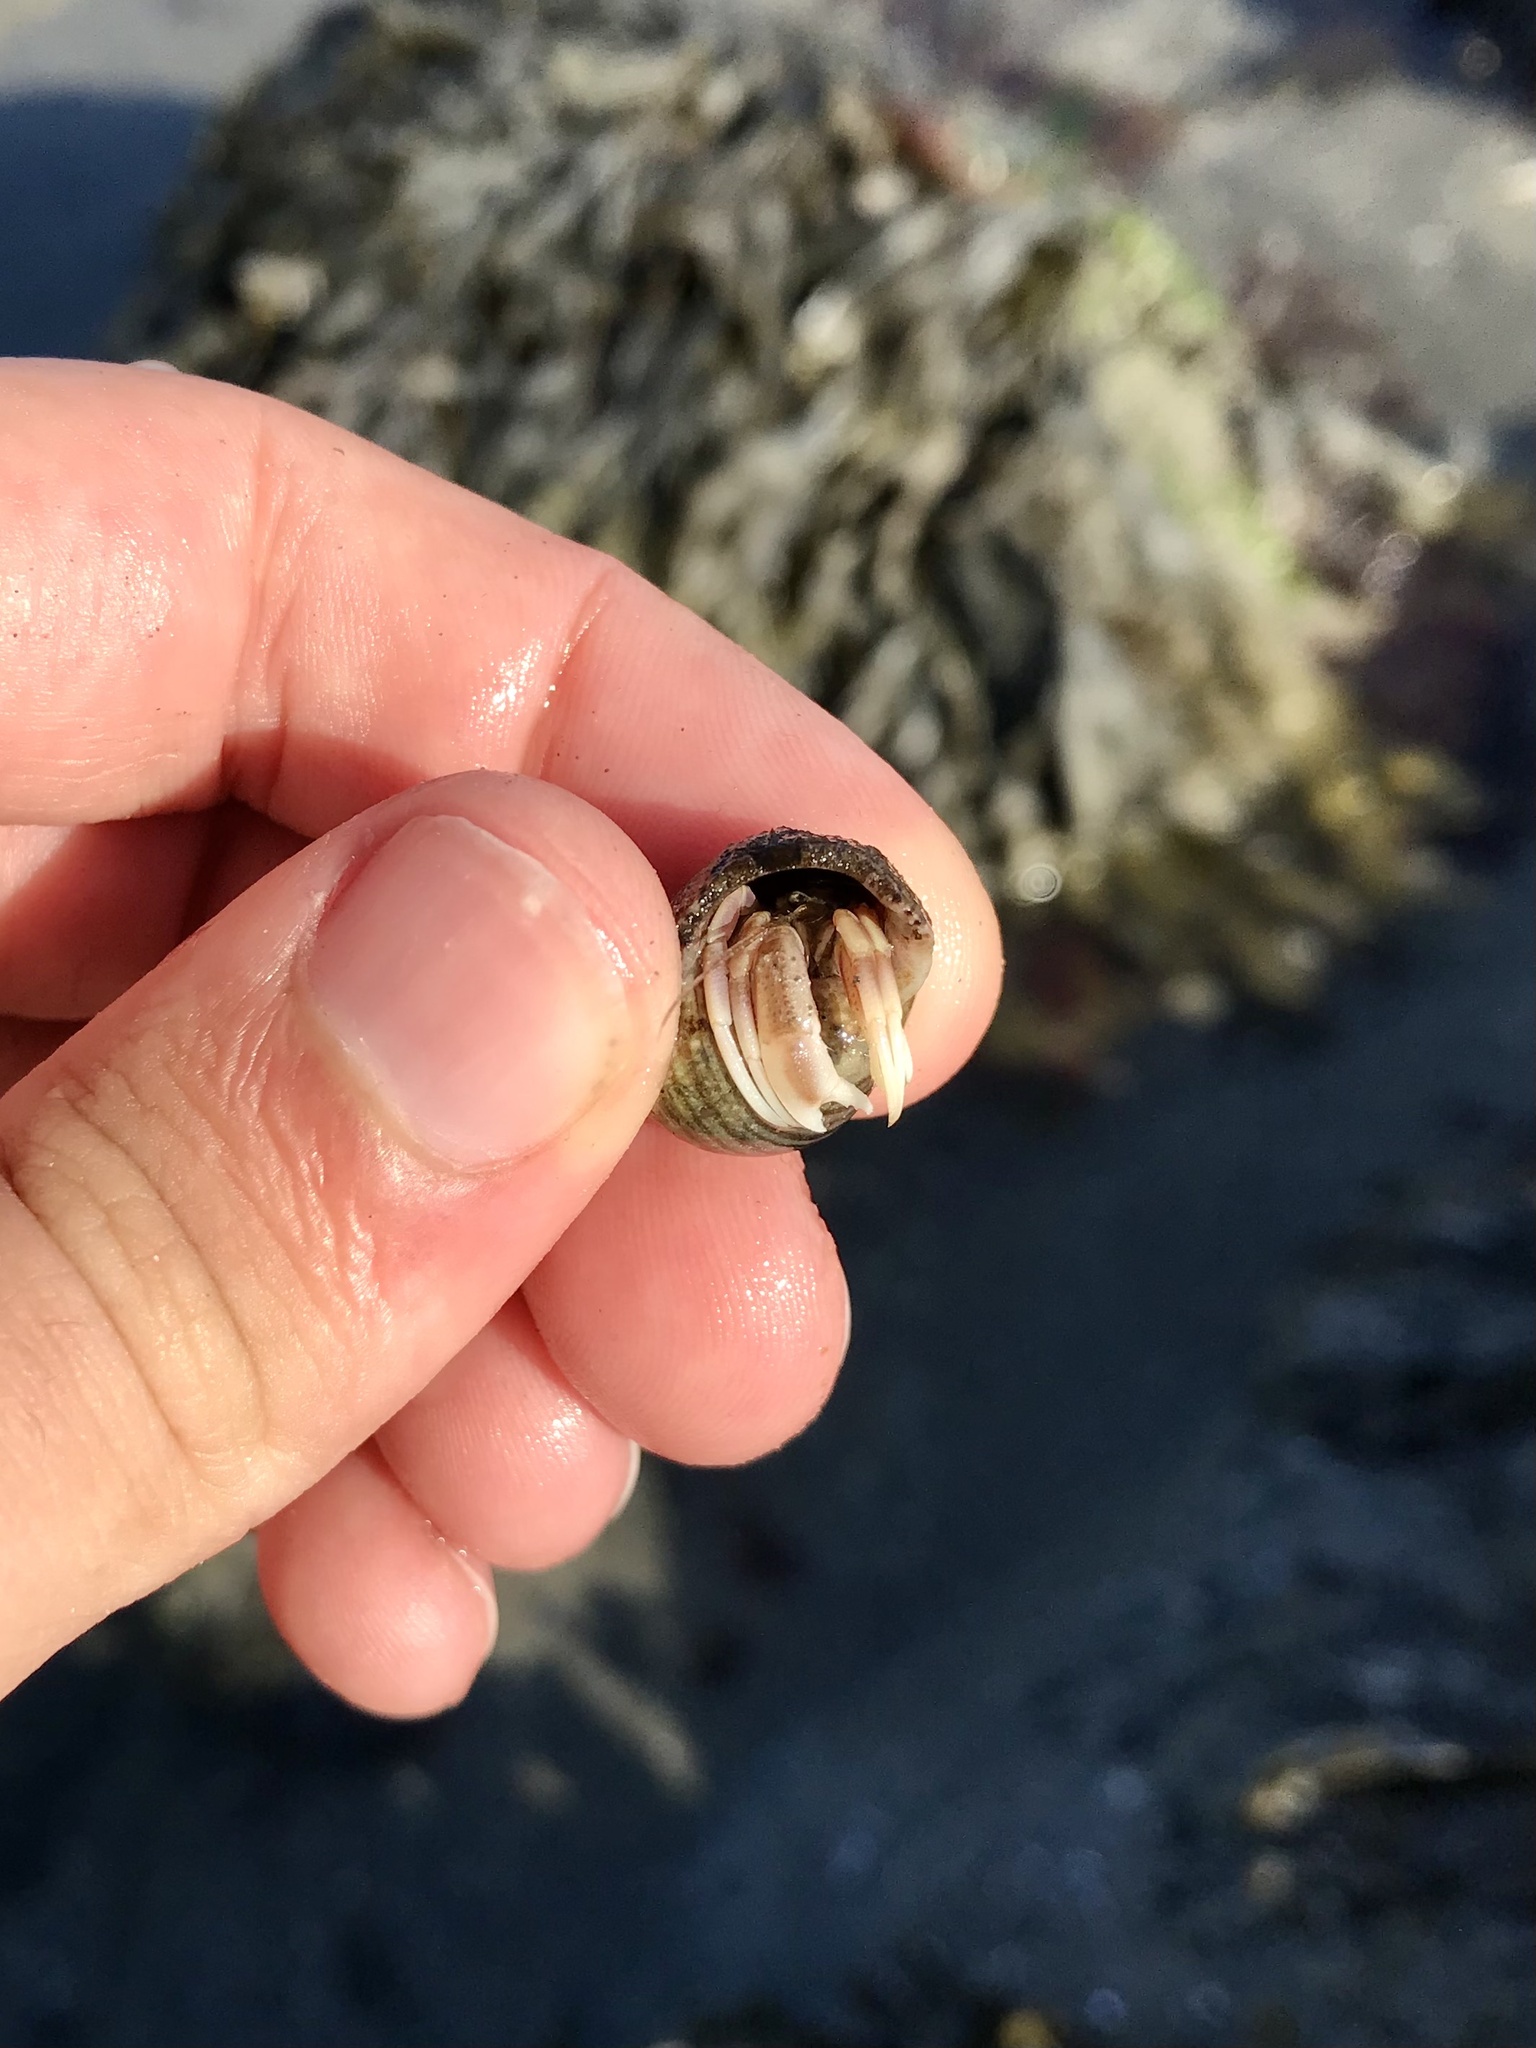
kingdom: Animalia
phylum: Arthropoda
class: Malacostraca
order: Decapoda
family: Paguridae
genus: Pagurus
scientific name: Pagurus longicarpus
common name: Long-armed hermit crab
